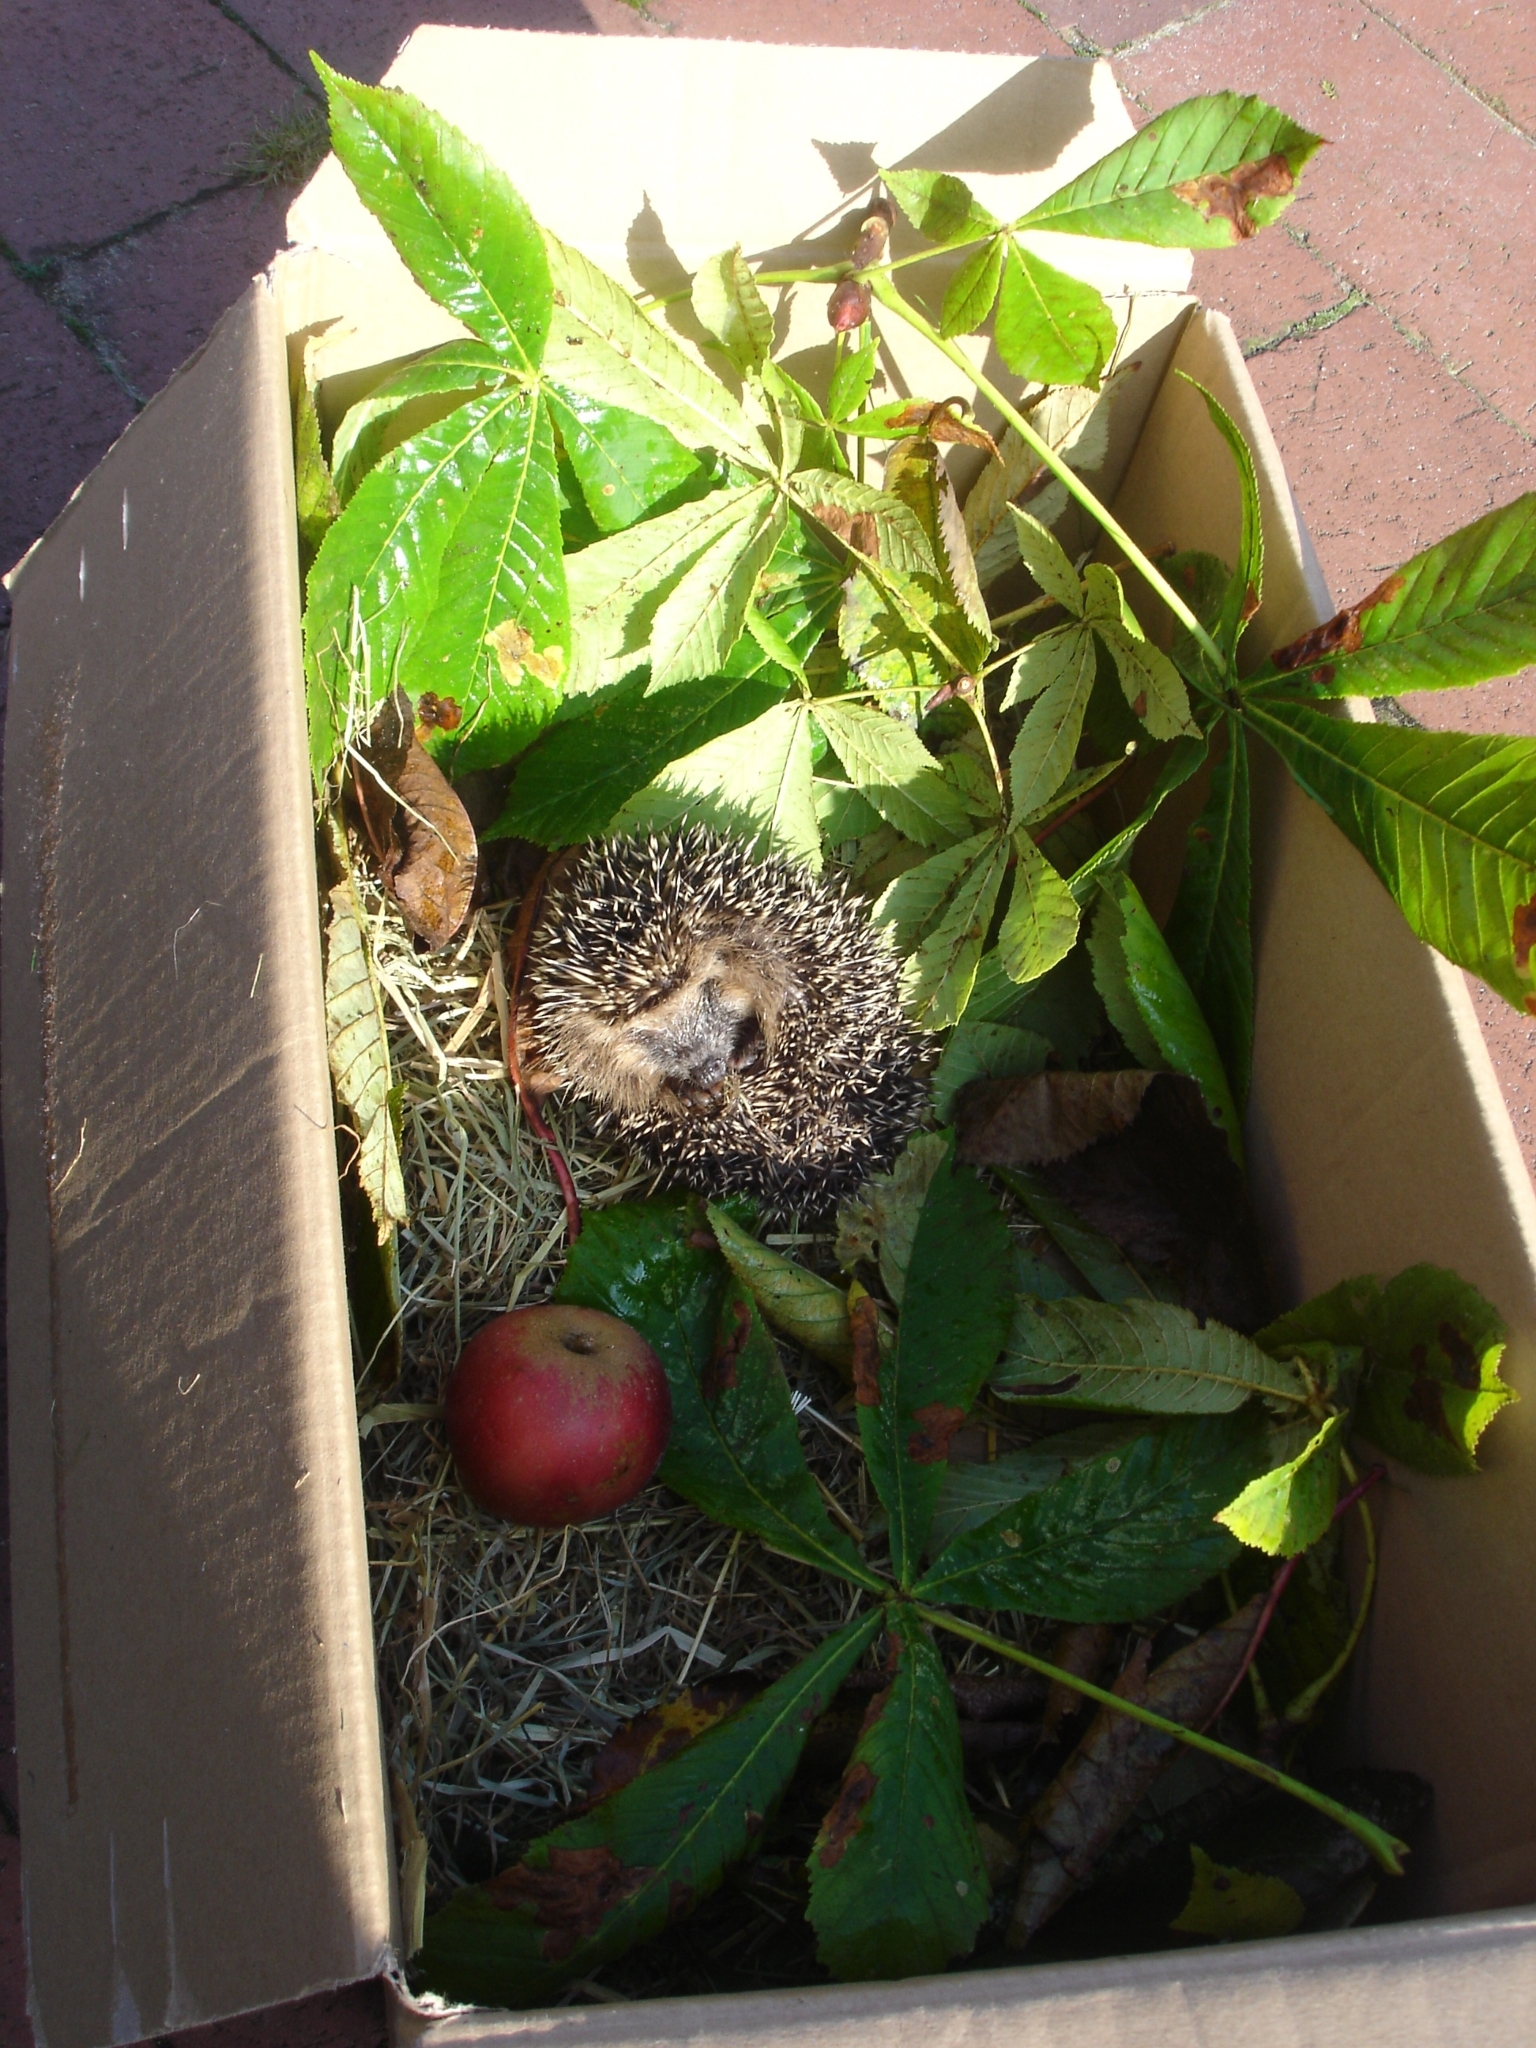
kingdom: Animalia
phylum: Chordata
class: Mammalia
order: Erinaceomorpha
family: Erinaceidae
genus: Erinaceus
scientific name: Erinaceus europaeus
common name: West european hedgehog
